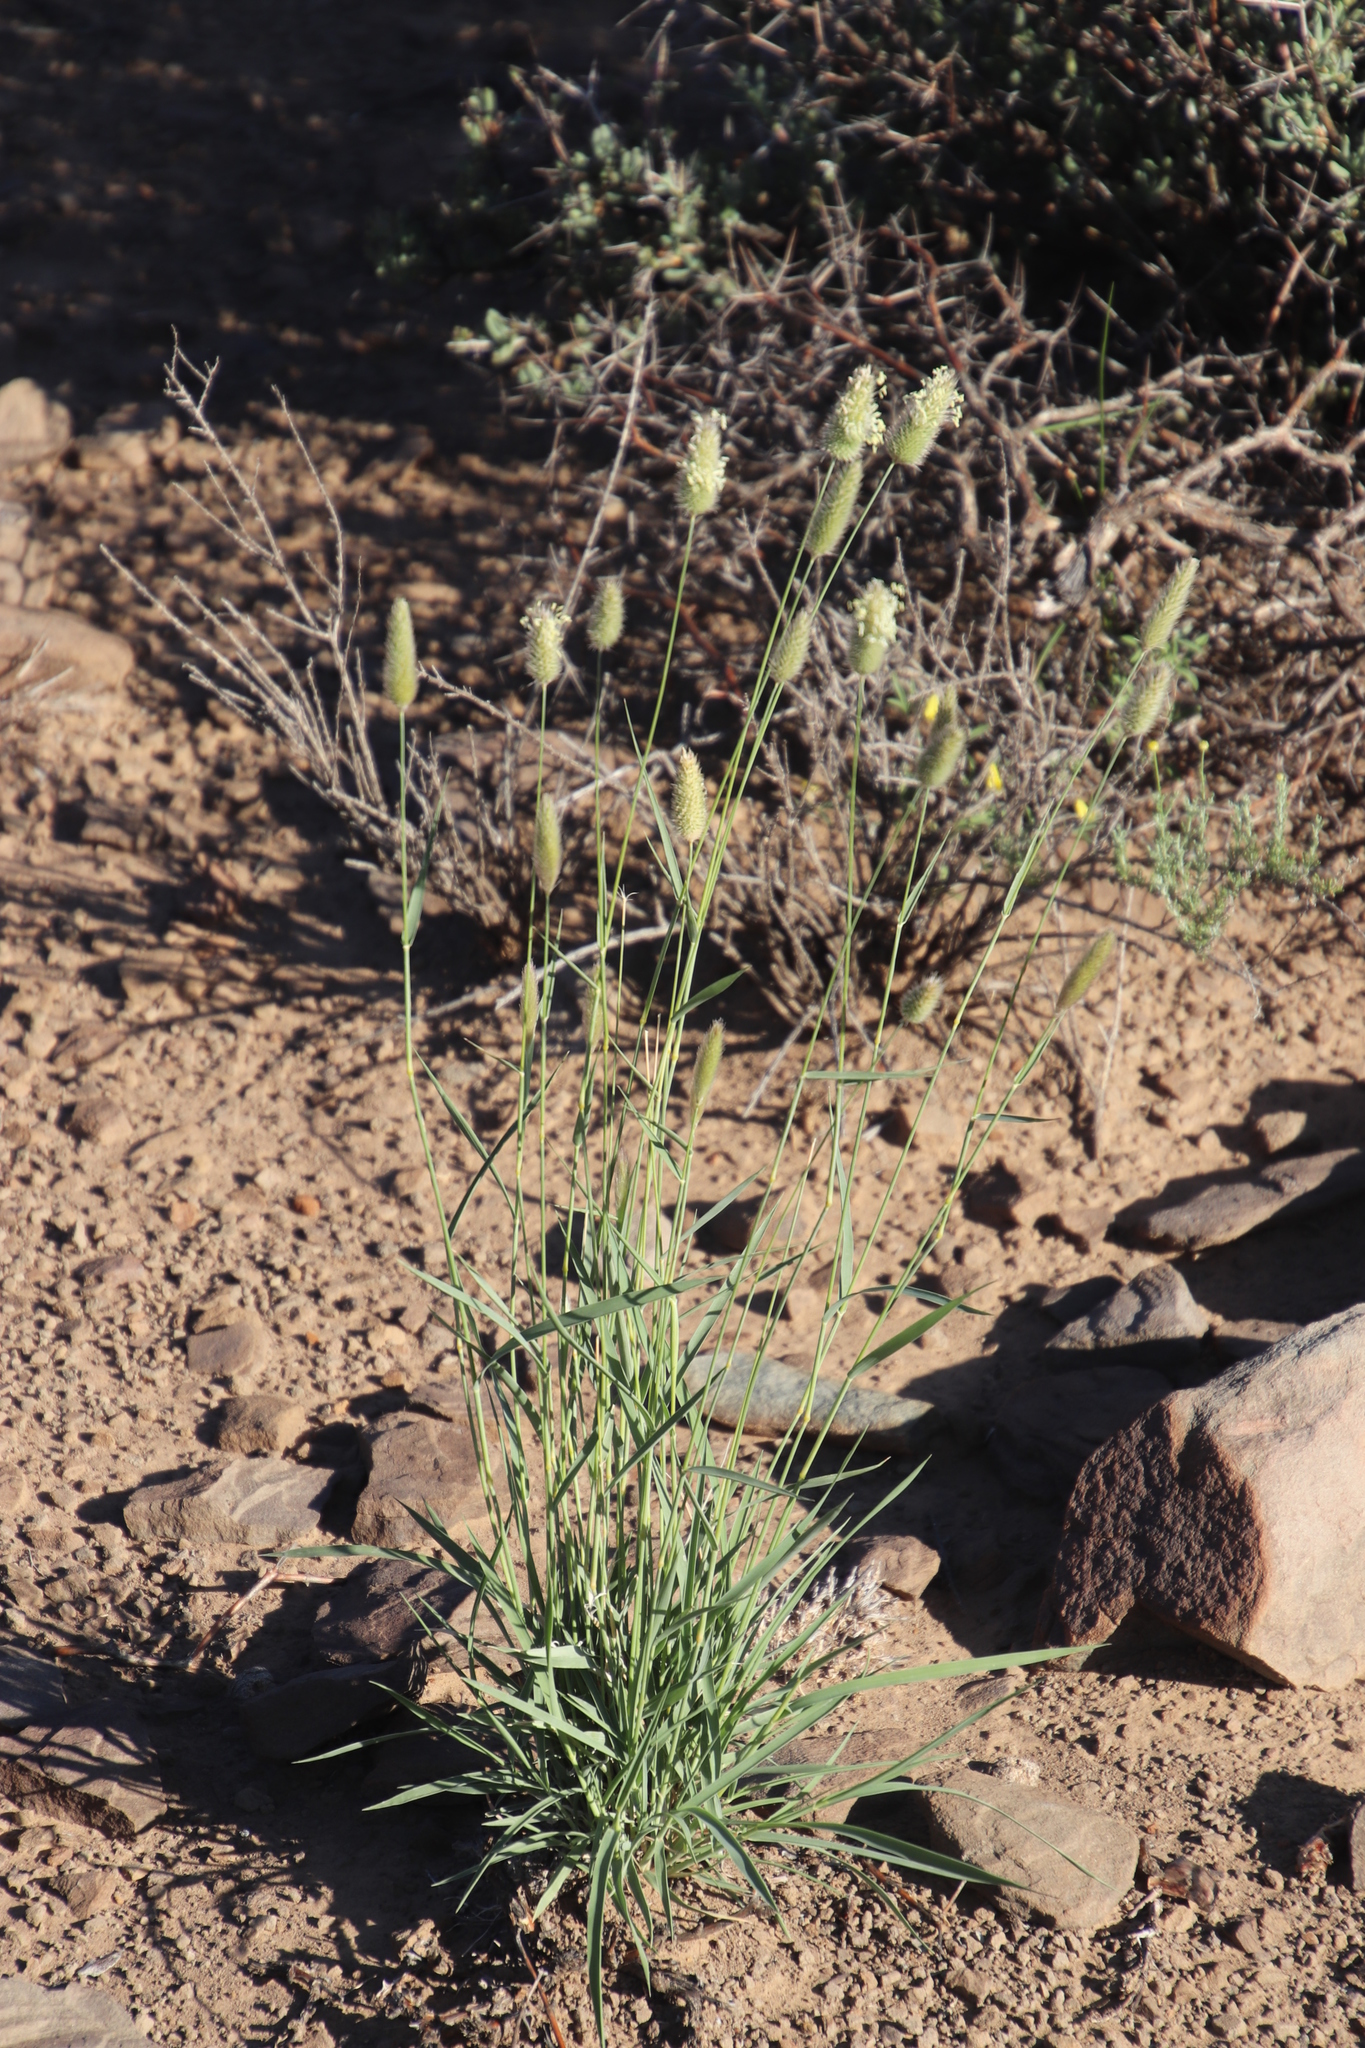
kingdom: Plantae
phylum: Tracheophyta
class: Liliopsida
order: Poales
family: Poaceae
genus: Fingerhuthia
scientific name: Fingerhuthia africana
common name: Zulu fescue
